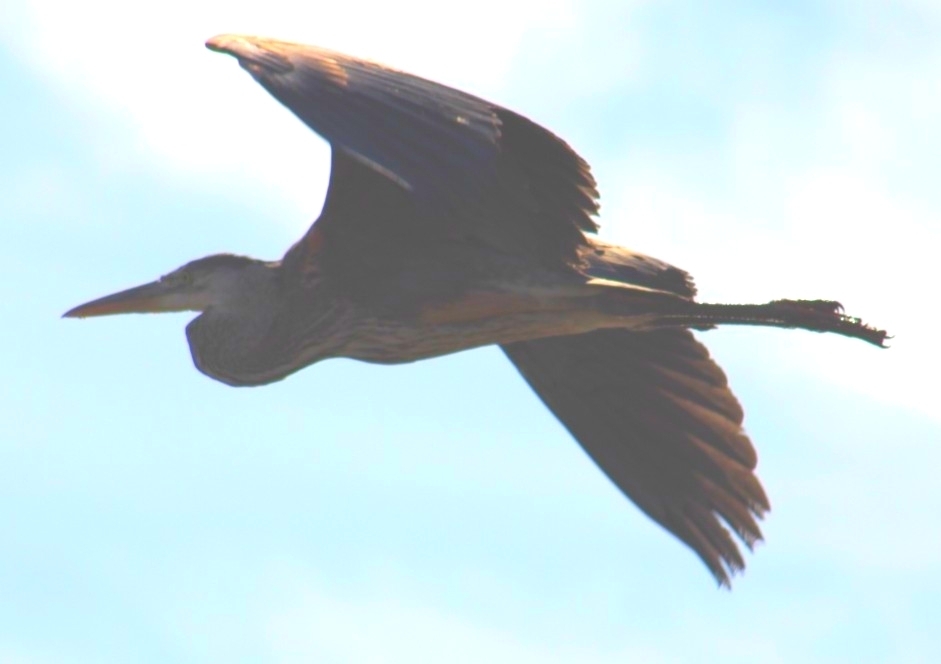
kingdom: Animalia
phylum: Chordata
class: Aves
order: Pelecaniformes
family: Ardeidae
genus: Ardea
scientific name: Ardea herodias
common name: Great blue heron
